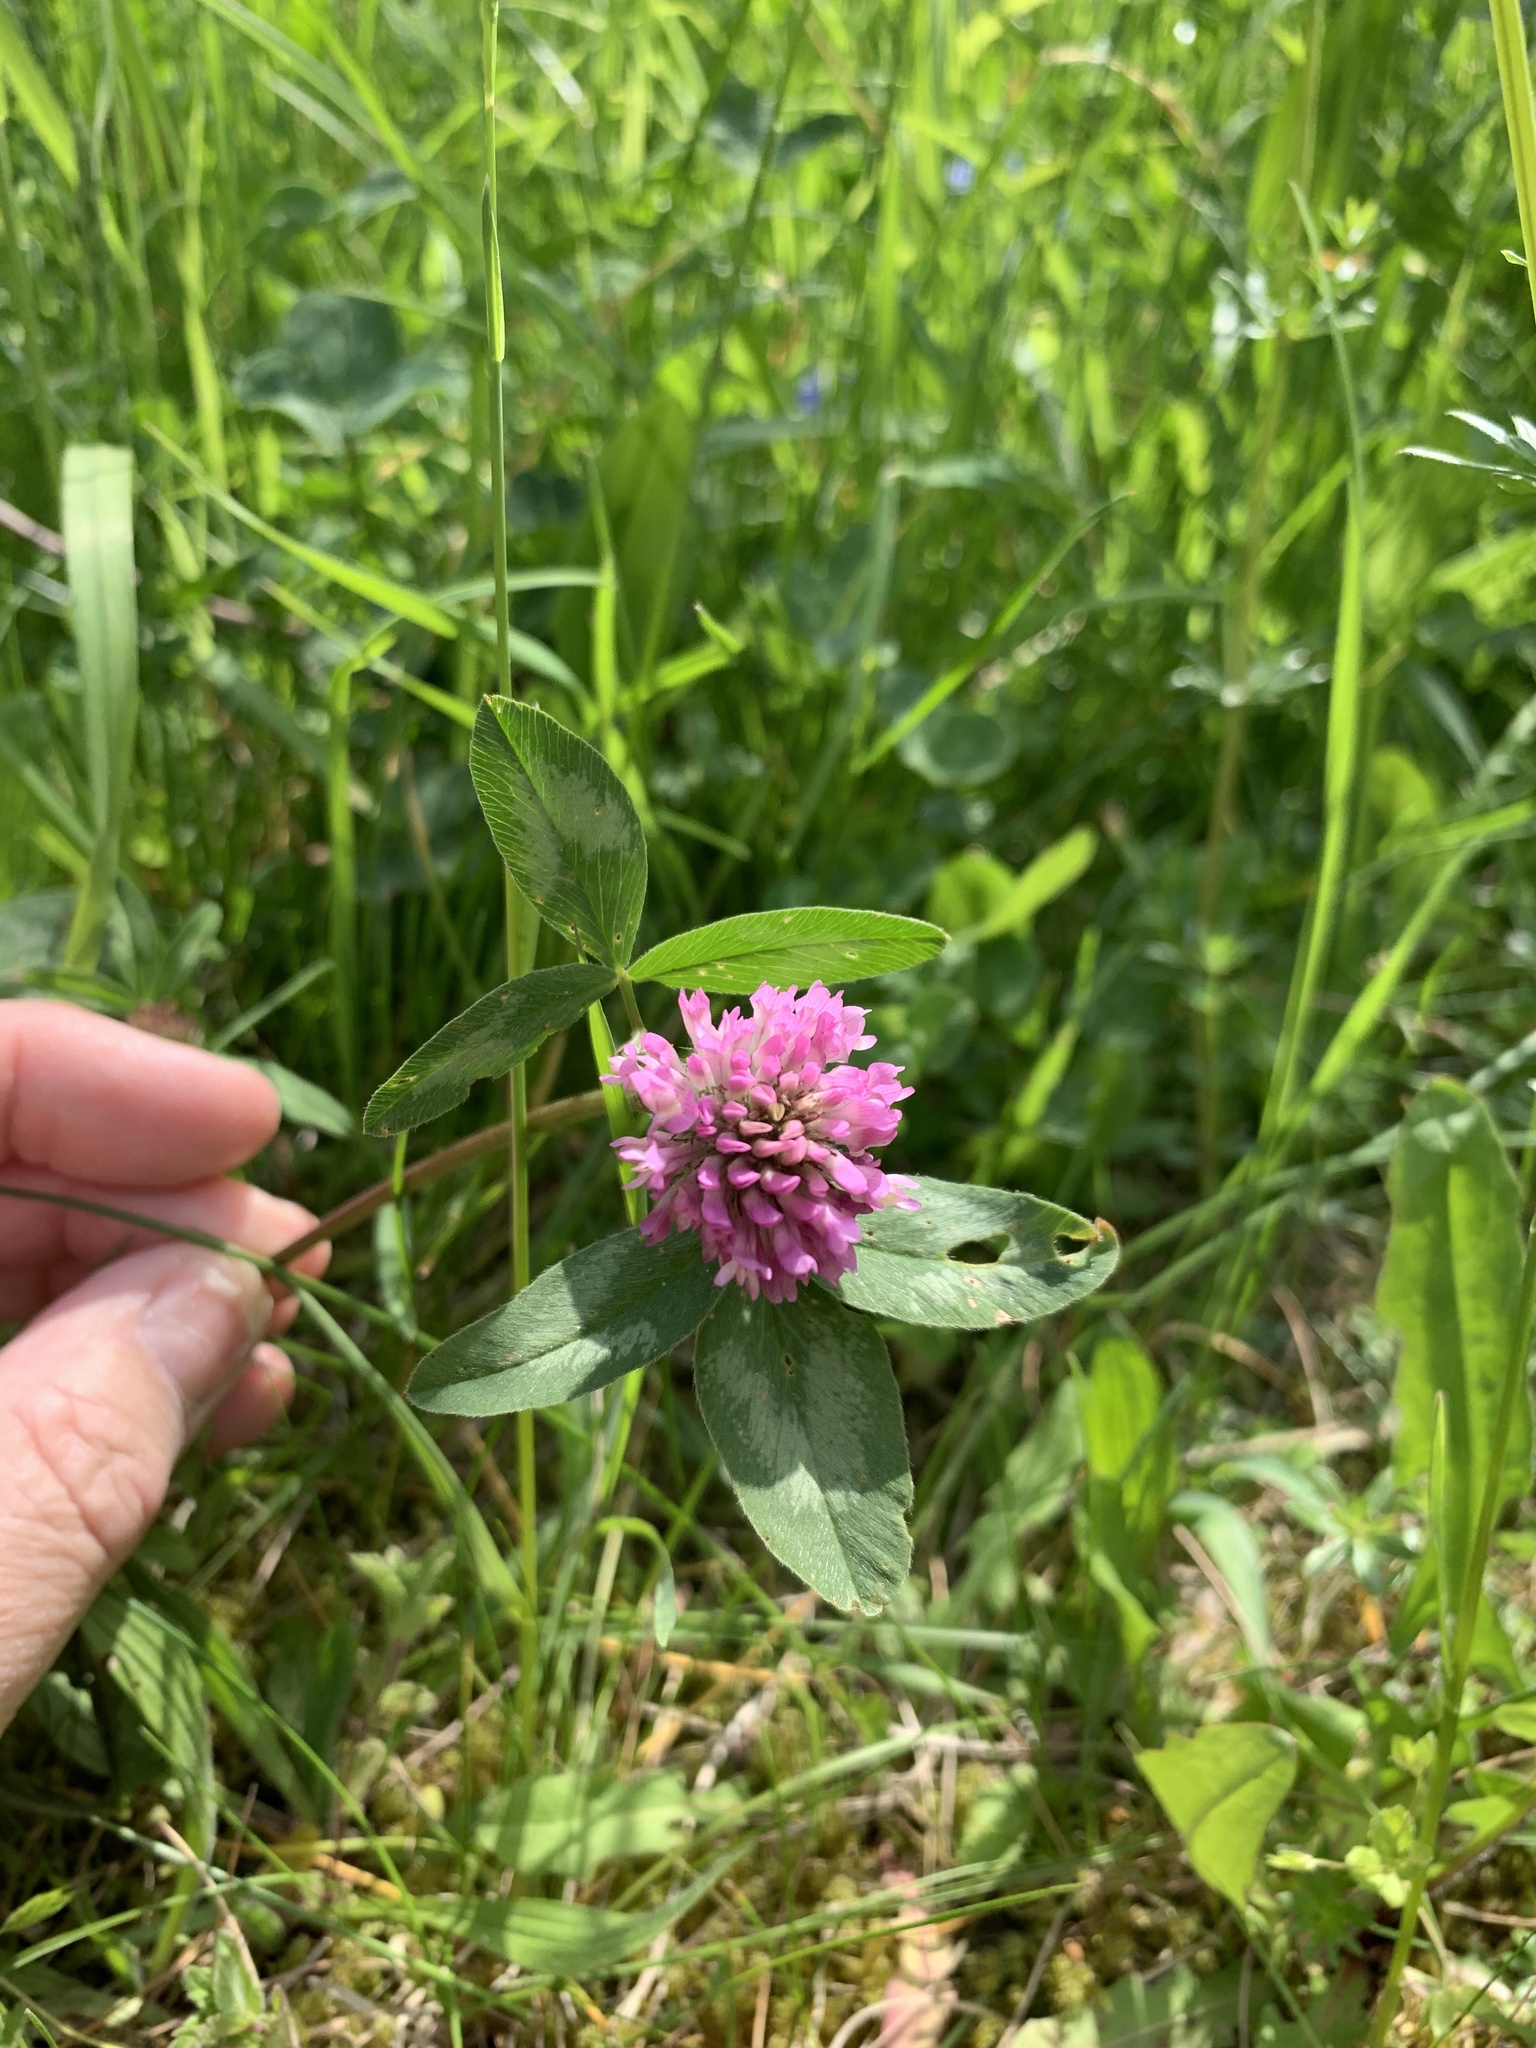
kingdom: Plantae
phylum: Tracheophyta
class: Magnoliopsida
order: Fabales
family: Fabaceae
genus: Trifolium
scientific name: Trifolium pratense
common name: Red clover
